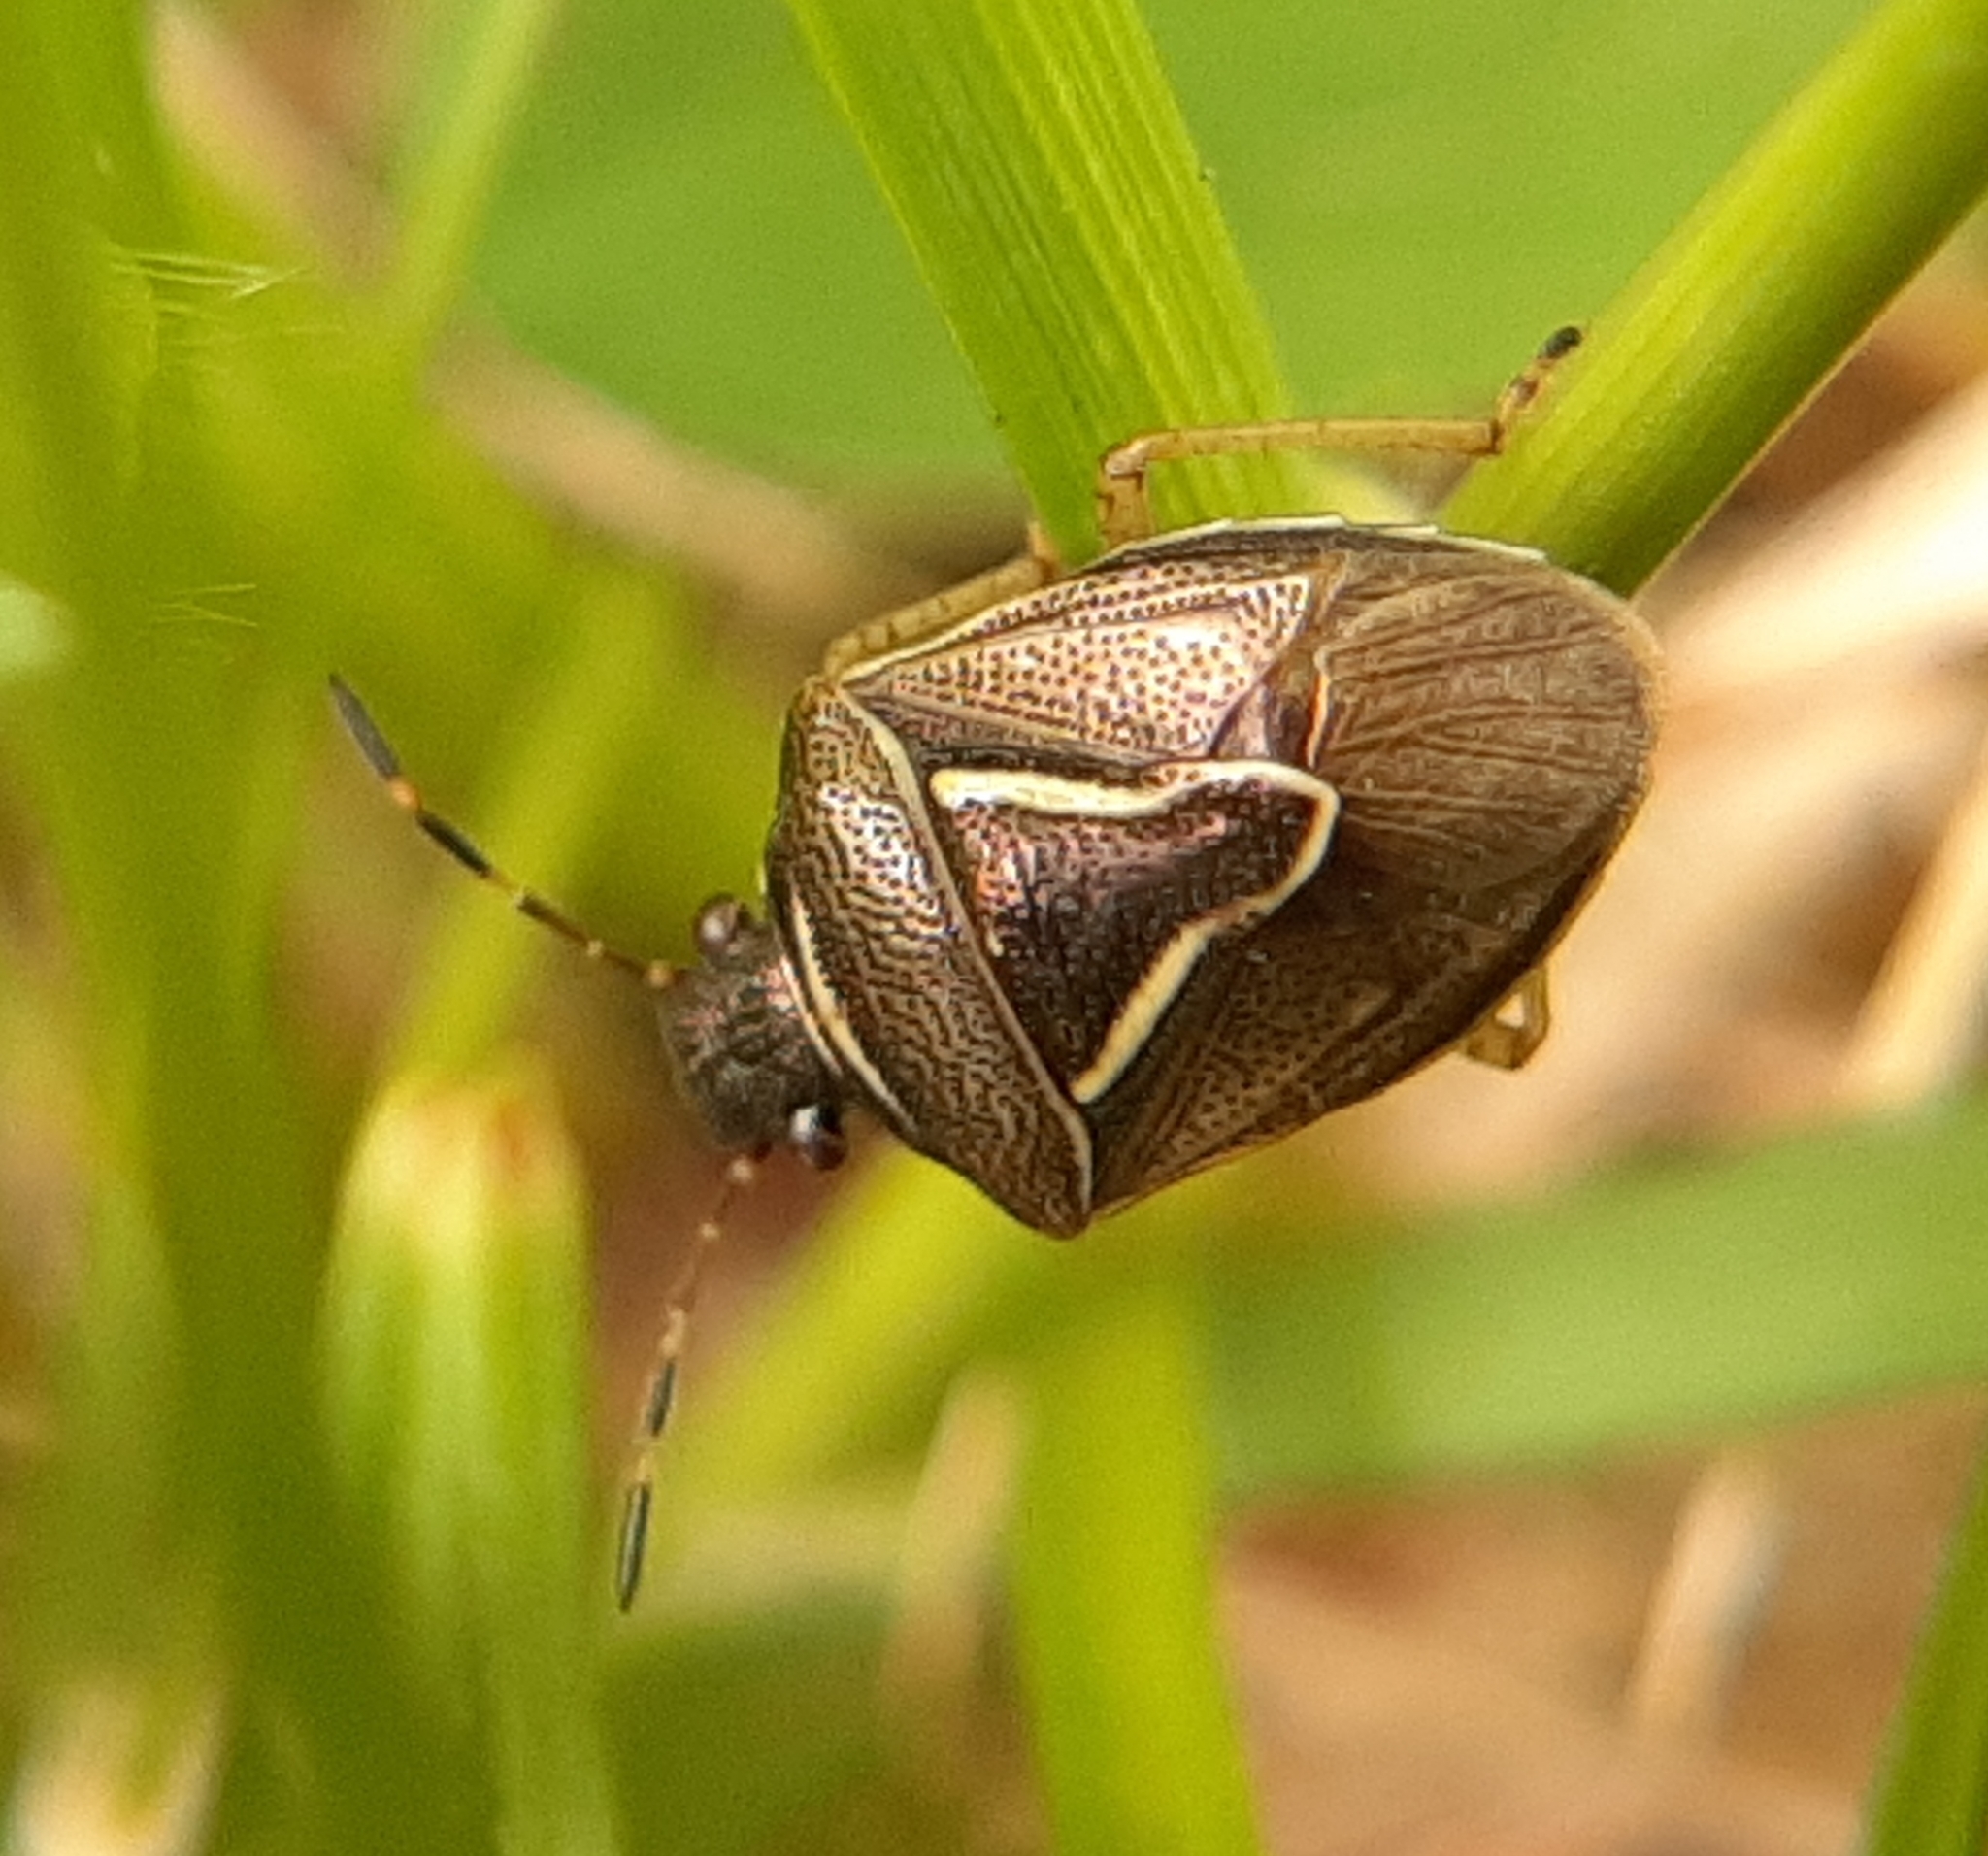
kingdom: Animalia
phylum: Arthropoda
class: Insecta
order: Hemiptera
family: Pentatomidae
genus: Mormidea
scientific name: Mormidea lugens
